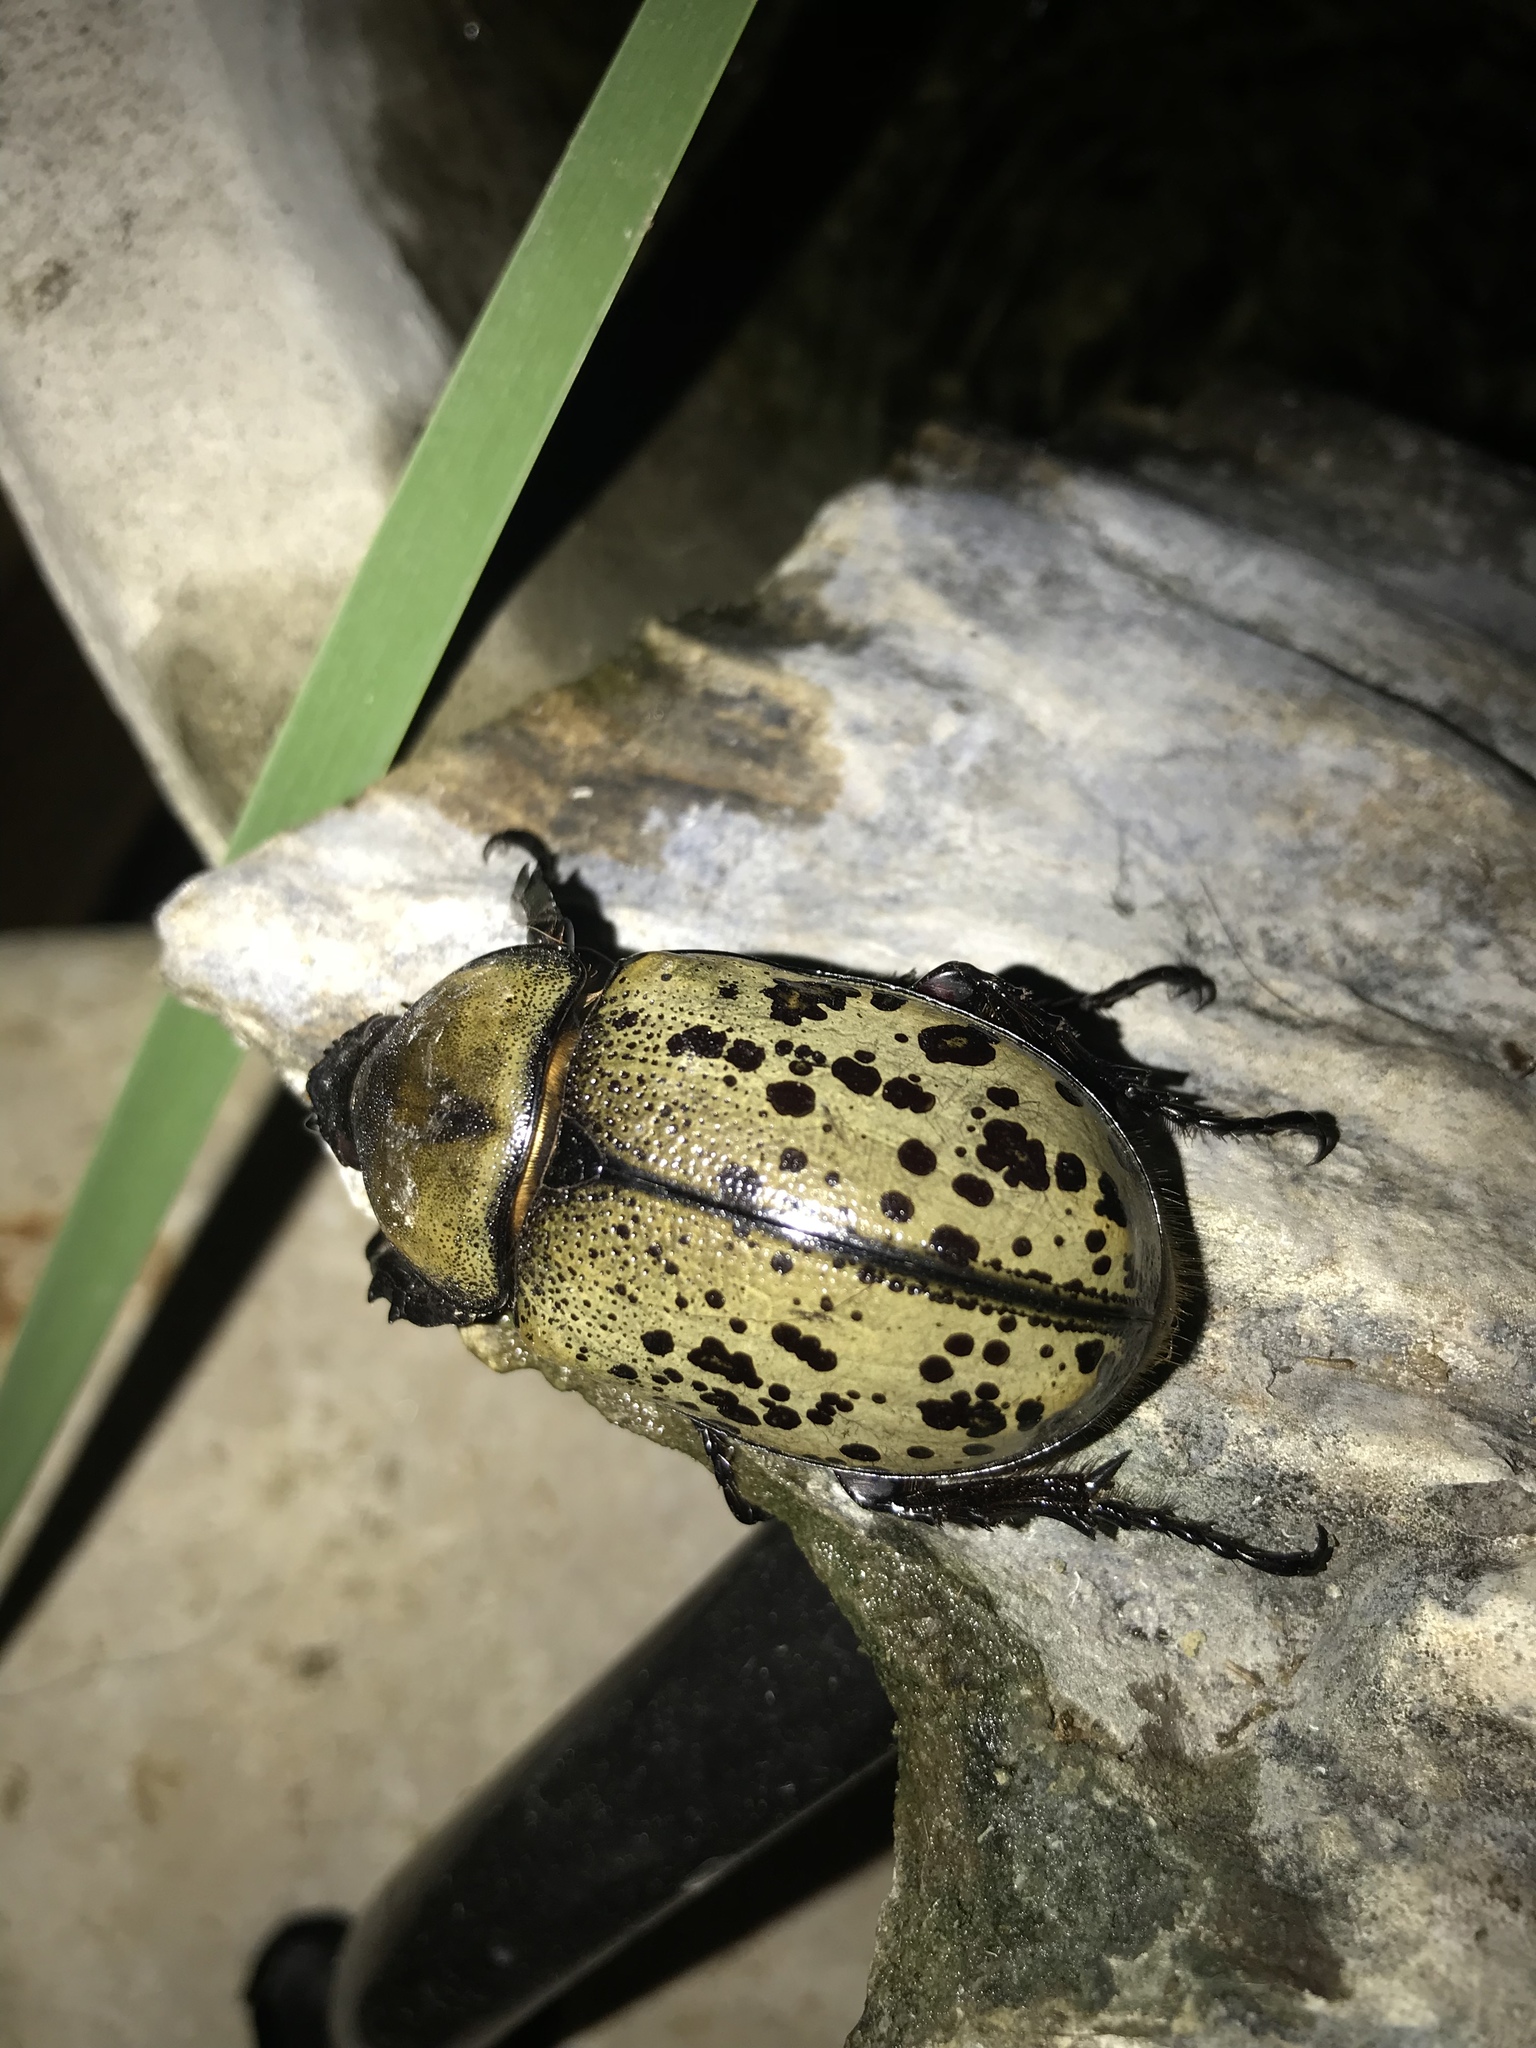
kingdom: Animalia
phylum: Arthropoda
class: Insecta
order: Coleoptera
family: Scarabaeidae
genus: Dynastes
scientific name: Dynastes tityus
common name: Eastern hercules beetle
